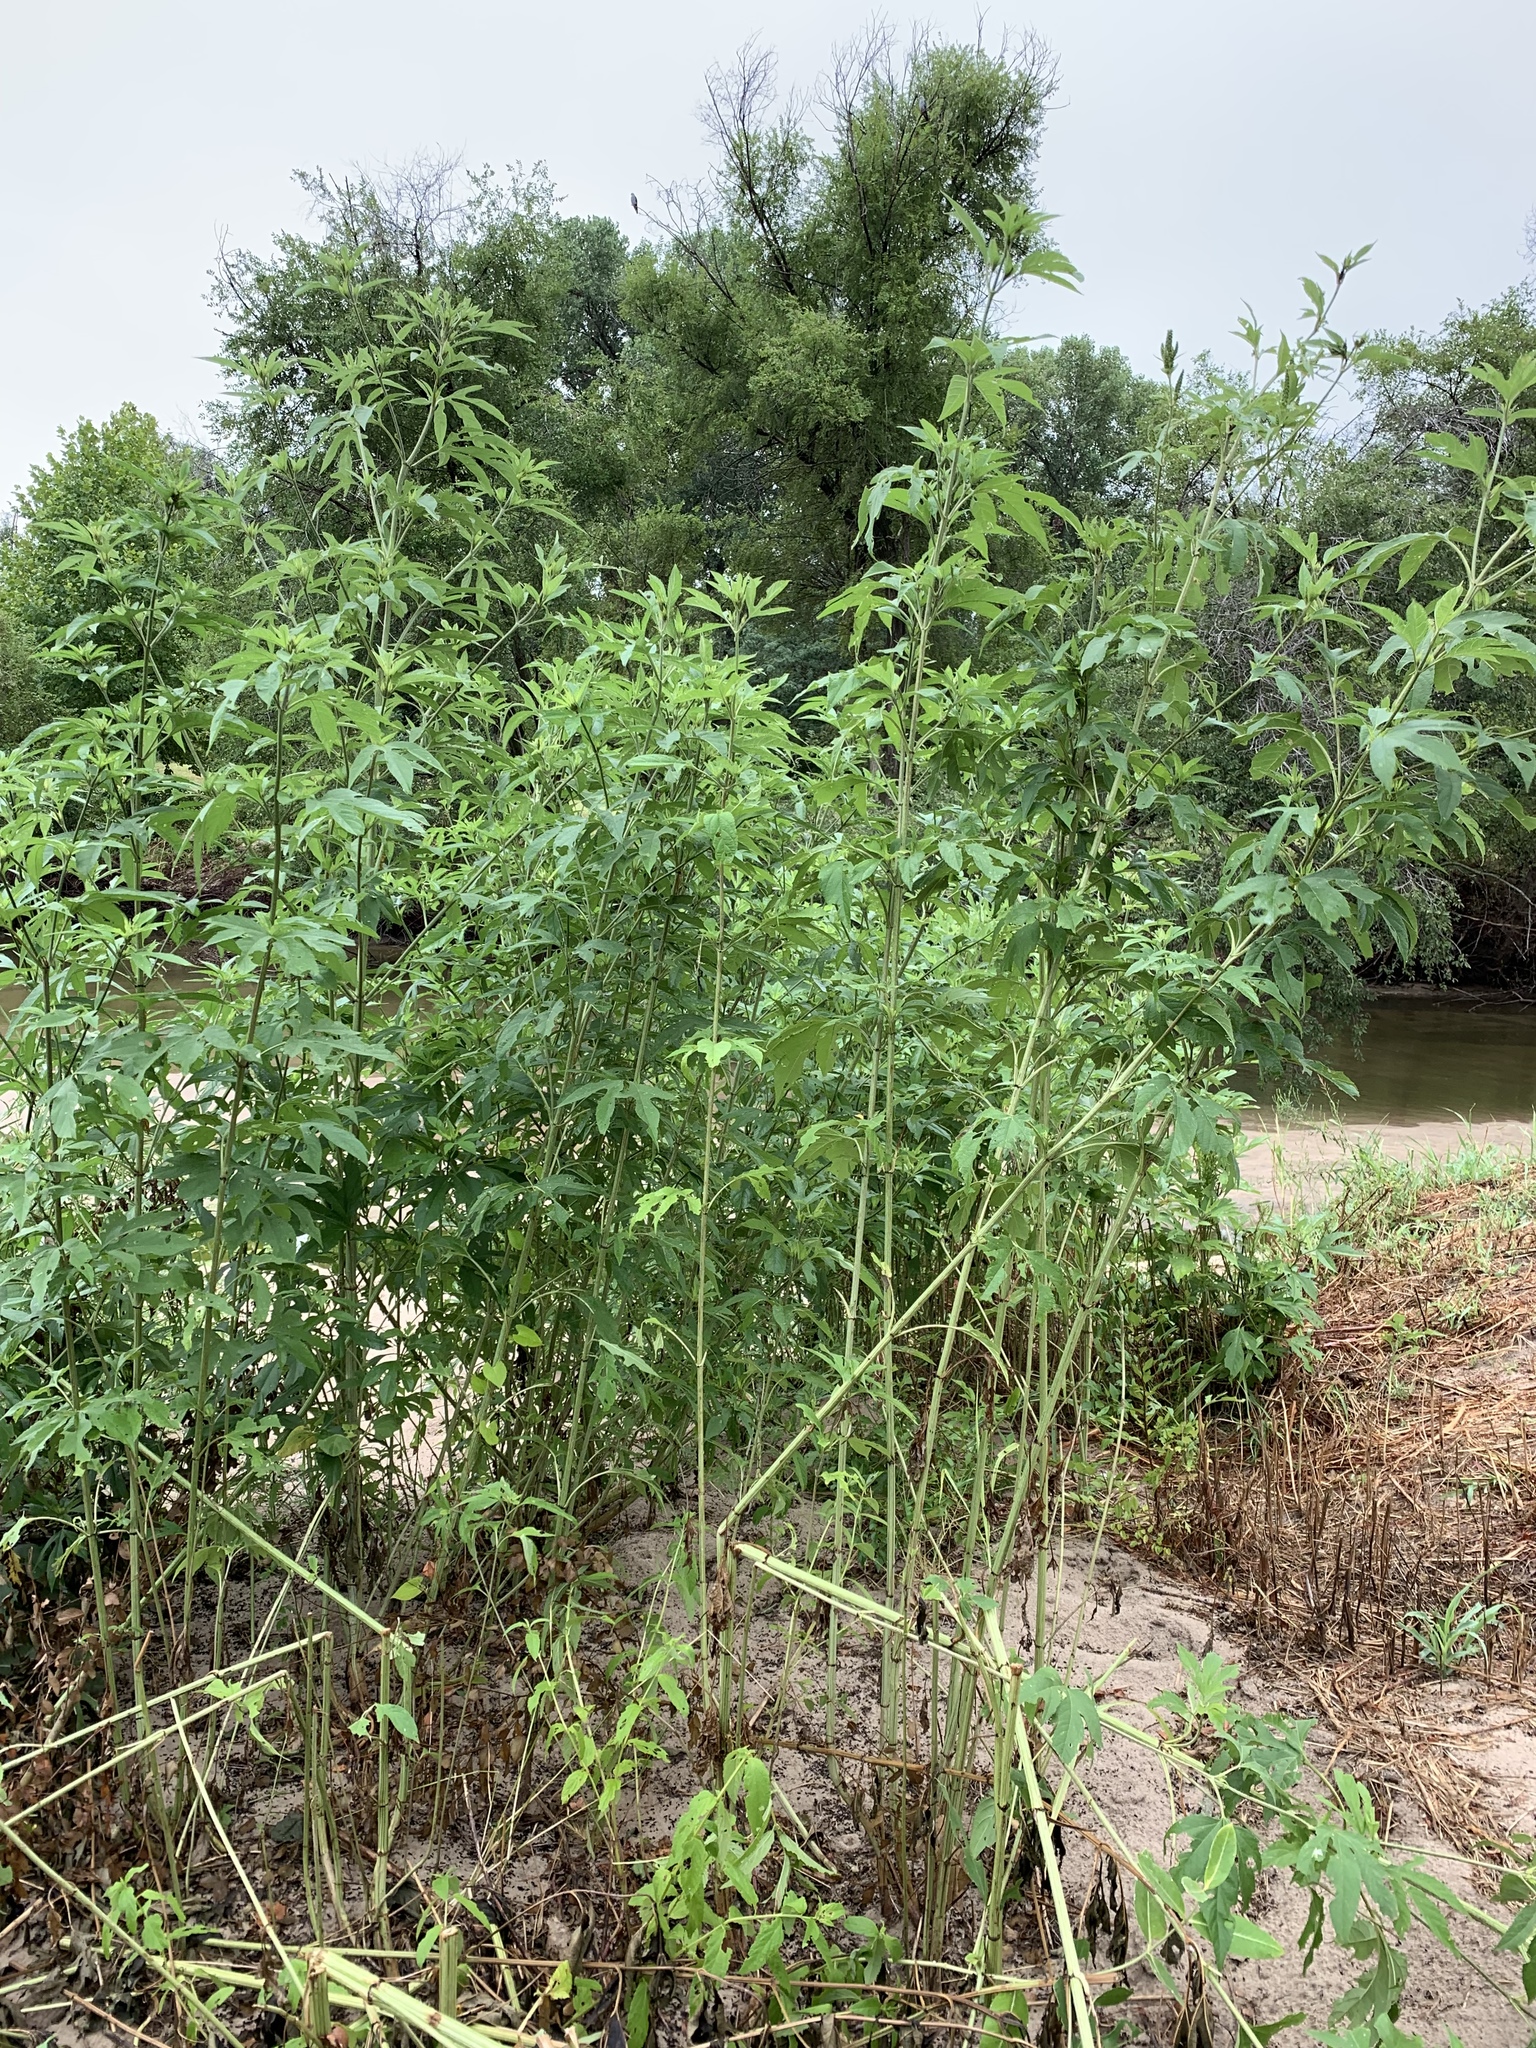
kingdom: Plantae
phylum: Tracheophyta
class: Magnoliopsida
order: Asterales
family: Asteraceae
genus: Ambrosia
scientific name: Ambrosia trifida
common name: Giant ragweed
